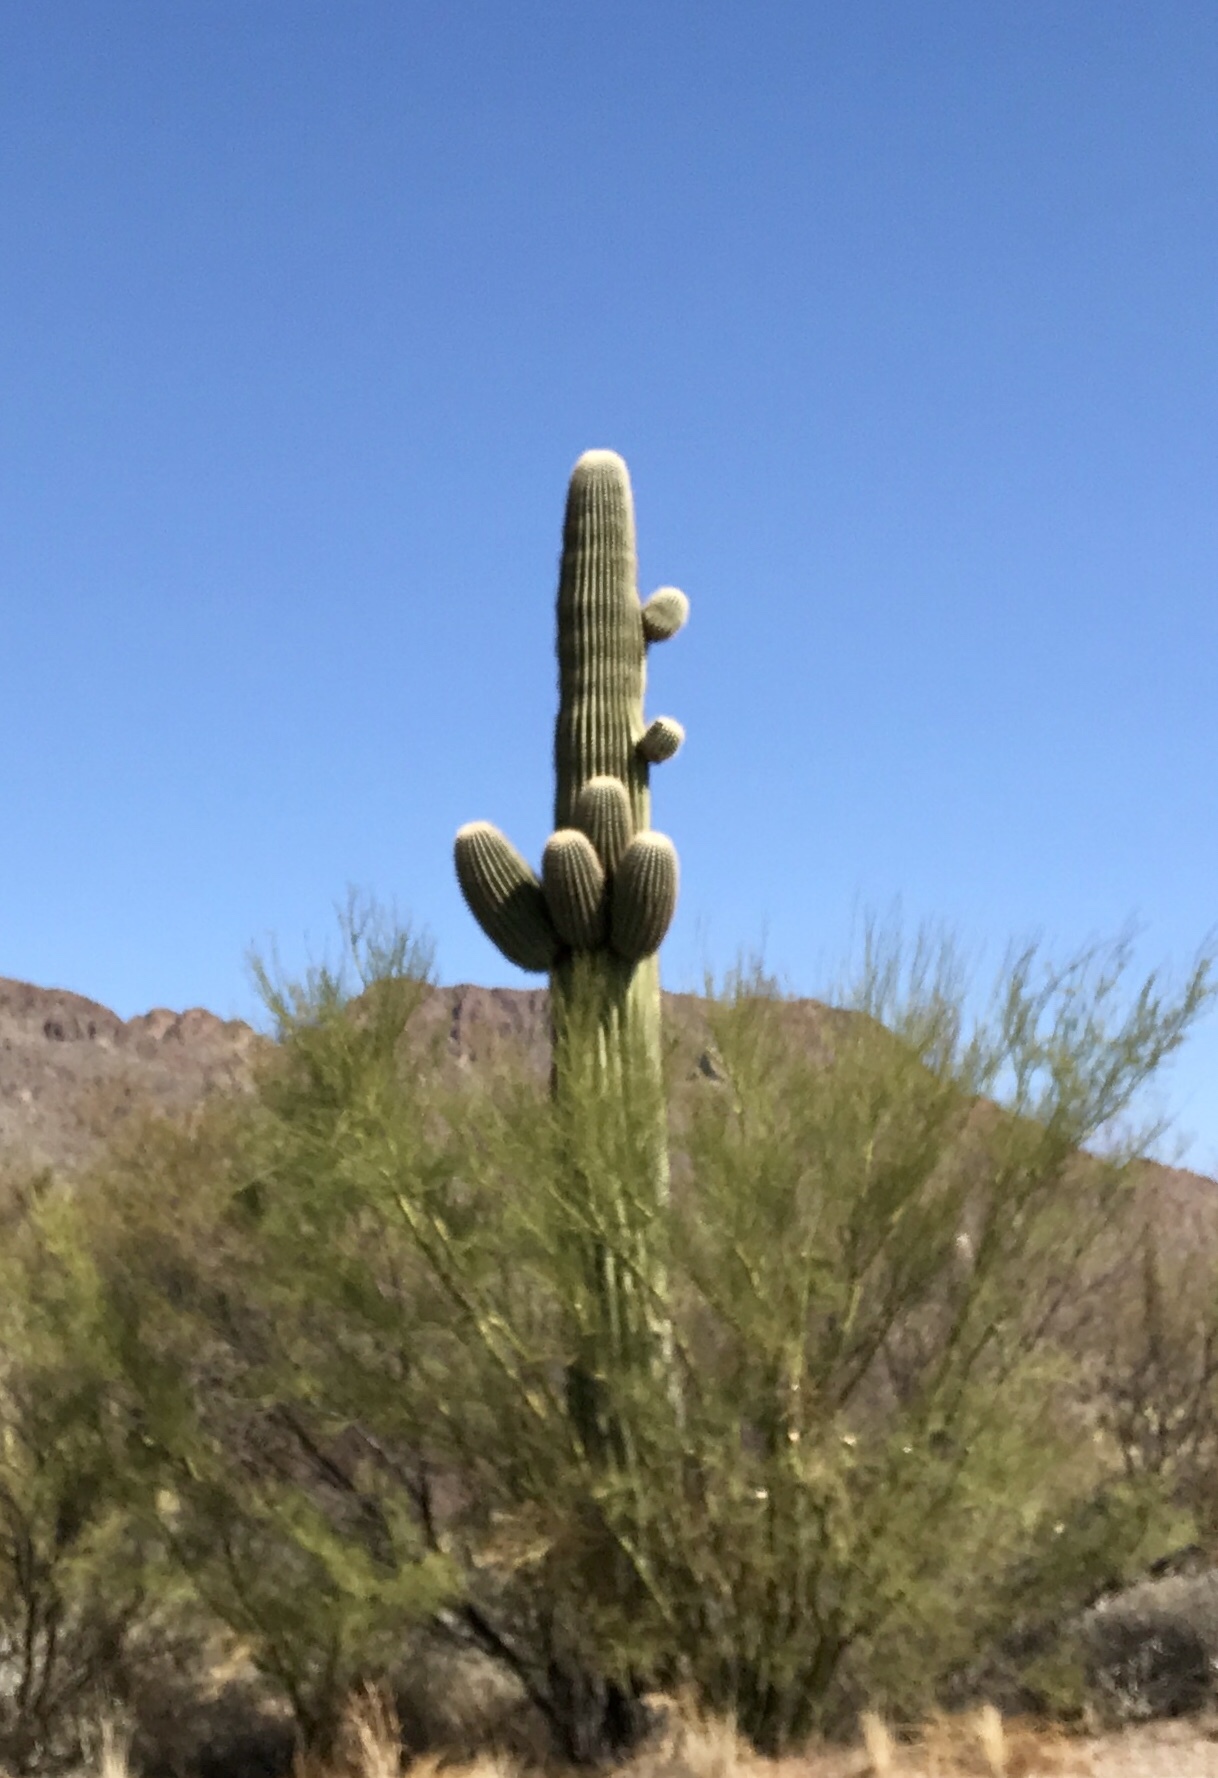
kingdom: Plantae
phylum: Tracheophyta
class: Magnoliopsida
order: Caryophyllales
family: Cactaceae
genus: Carnegiea
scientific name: Carnegiea gigantea
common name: Saguaro
